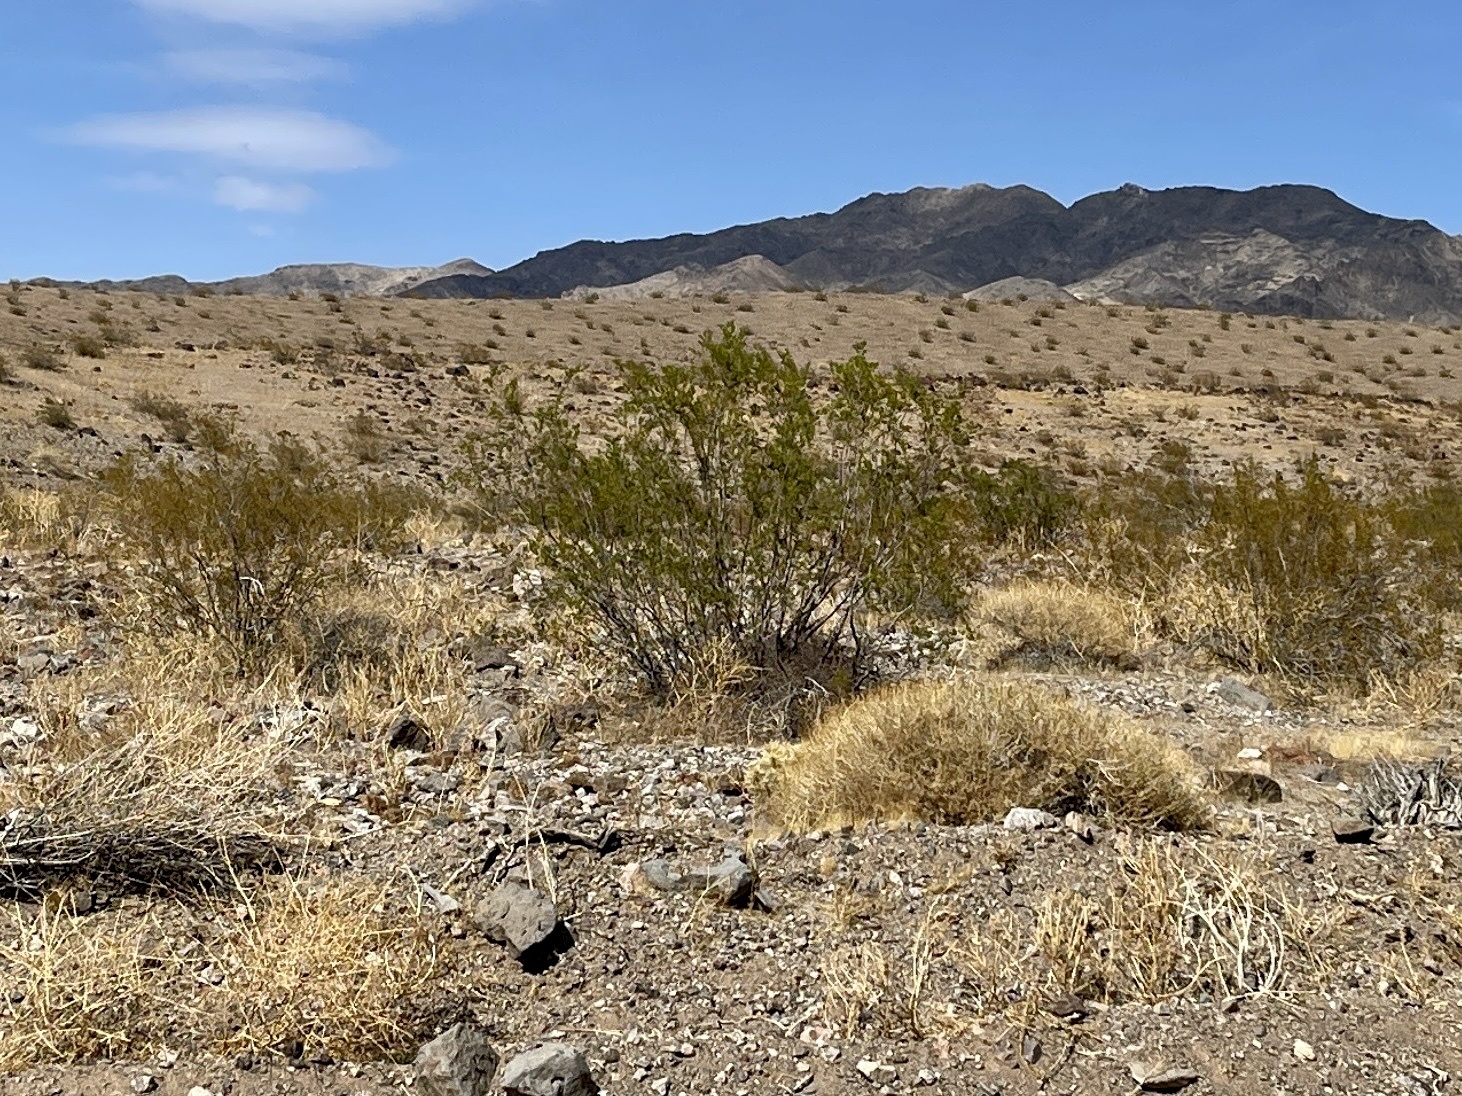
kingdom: Plantae
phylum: Tracheophyta
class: Magnoliopsida
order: Zygophyllales
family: Zygophyllaceae
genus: Larrea
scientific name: Larrea tridentata
